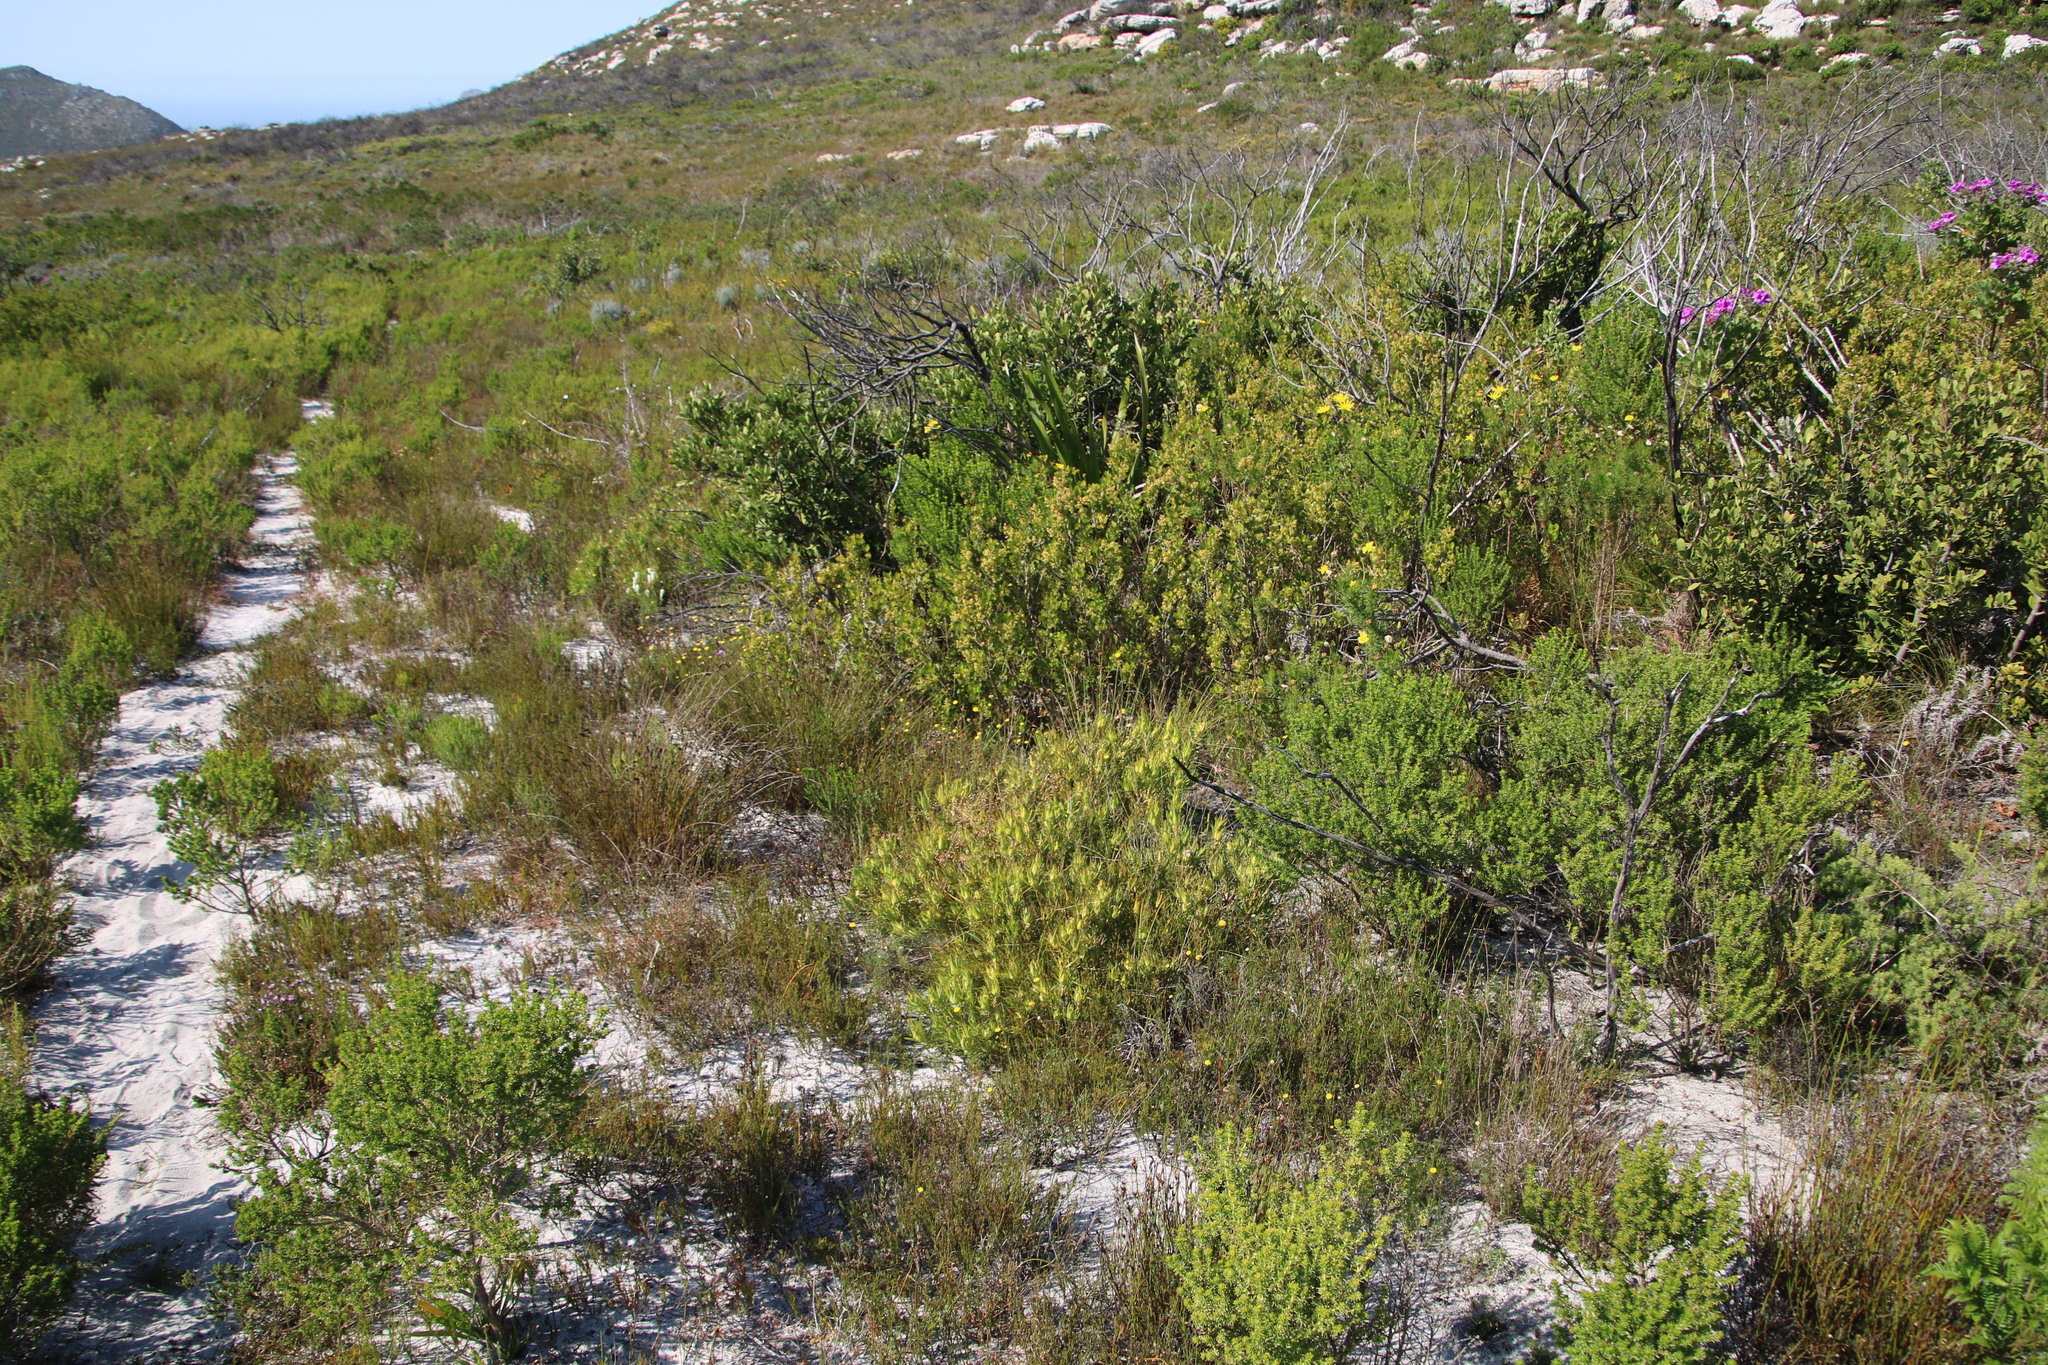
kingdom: Plantae
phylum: Tracheophyta
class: Magnoliopsida
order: Proteales
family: Proteaceae
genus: Leucadendron
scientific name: Leucadendron salignum
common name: Common sunshine conebush
